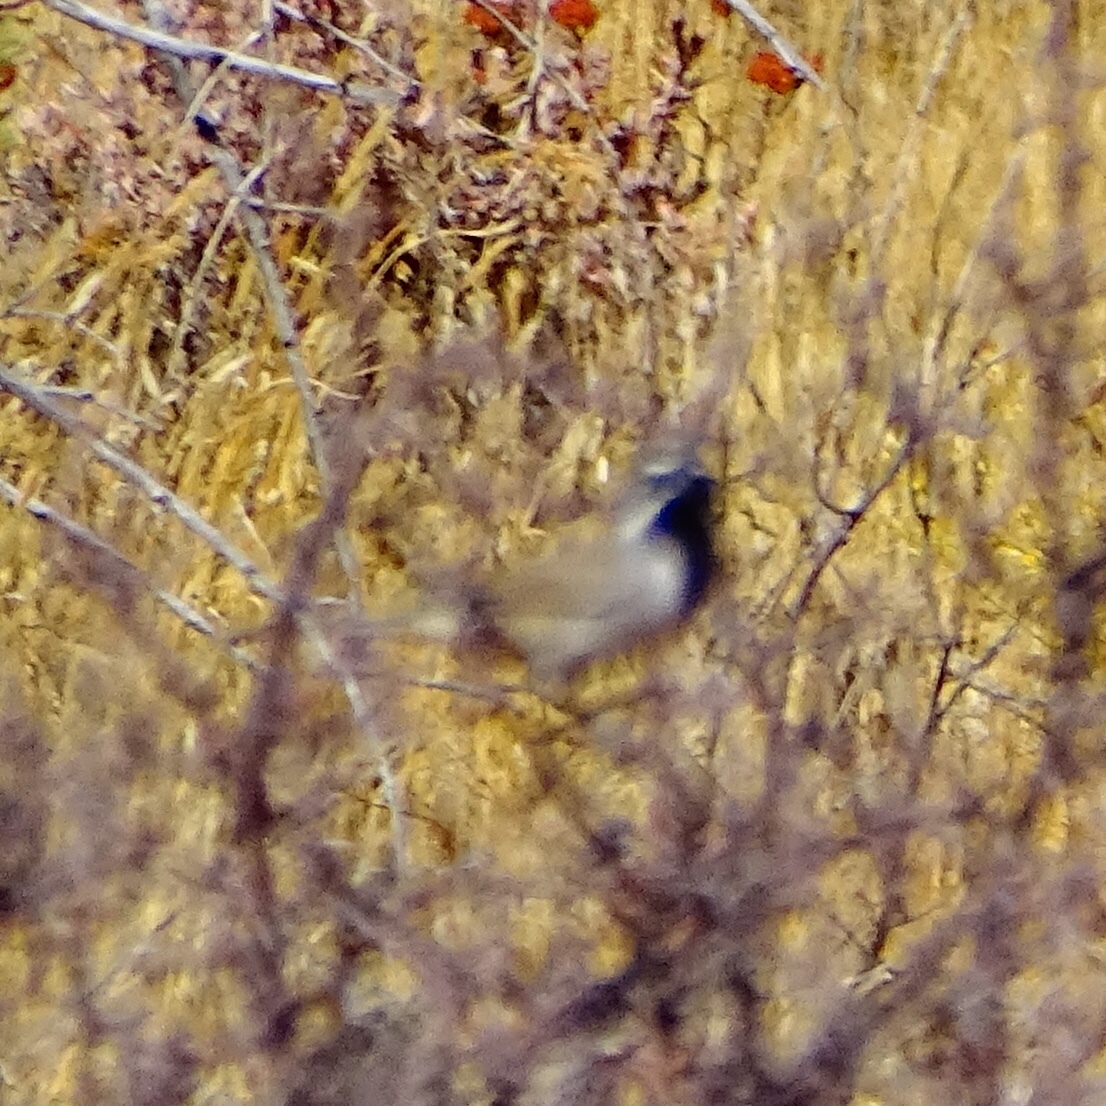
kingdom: Animalia
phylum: Chordata
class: Aves
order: Passeriformes
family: Passerellidae
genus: Amphispiza
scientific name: Amphispiza bilineata
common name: Black-throated sparrow
